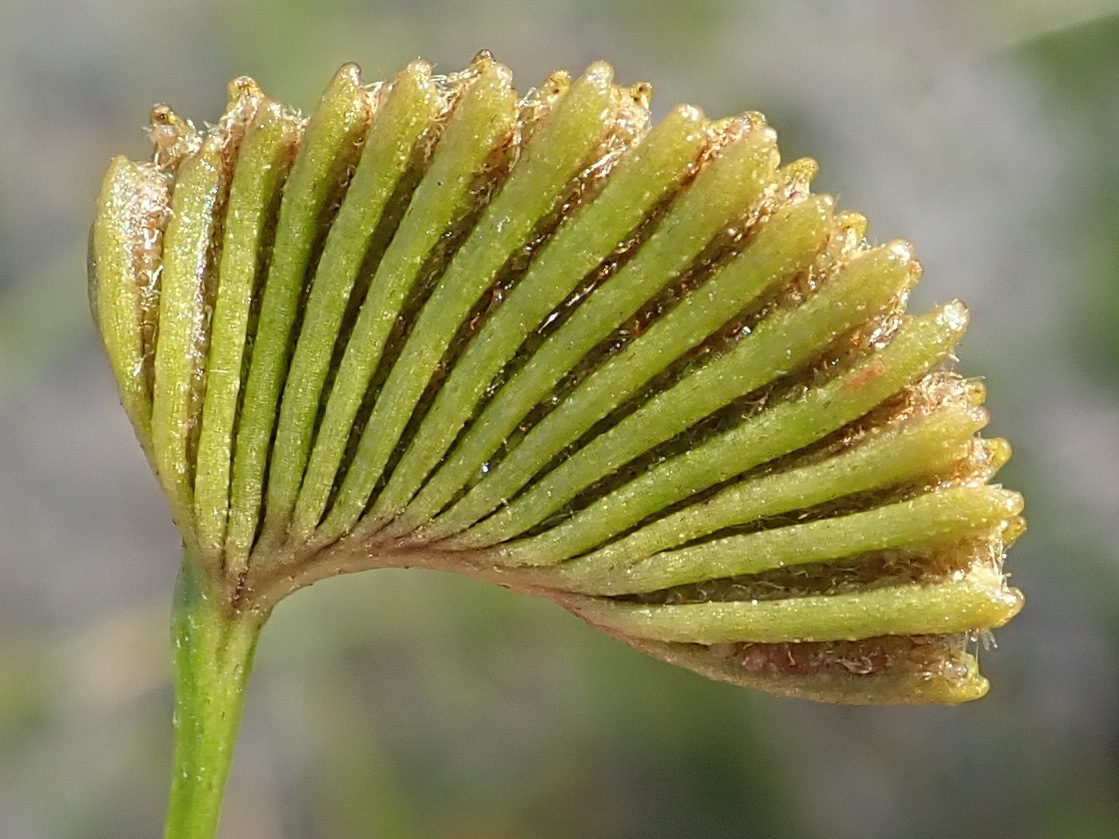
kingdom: Plantae
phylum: Tracheophyta
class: Polypodiopsida
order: Schizaeales
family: Schizaeaceae
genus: Schizaea
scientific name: Schizaea pectinata
